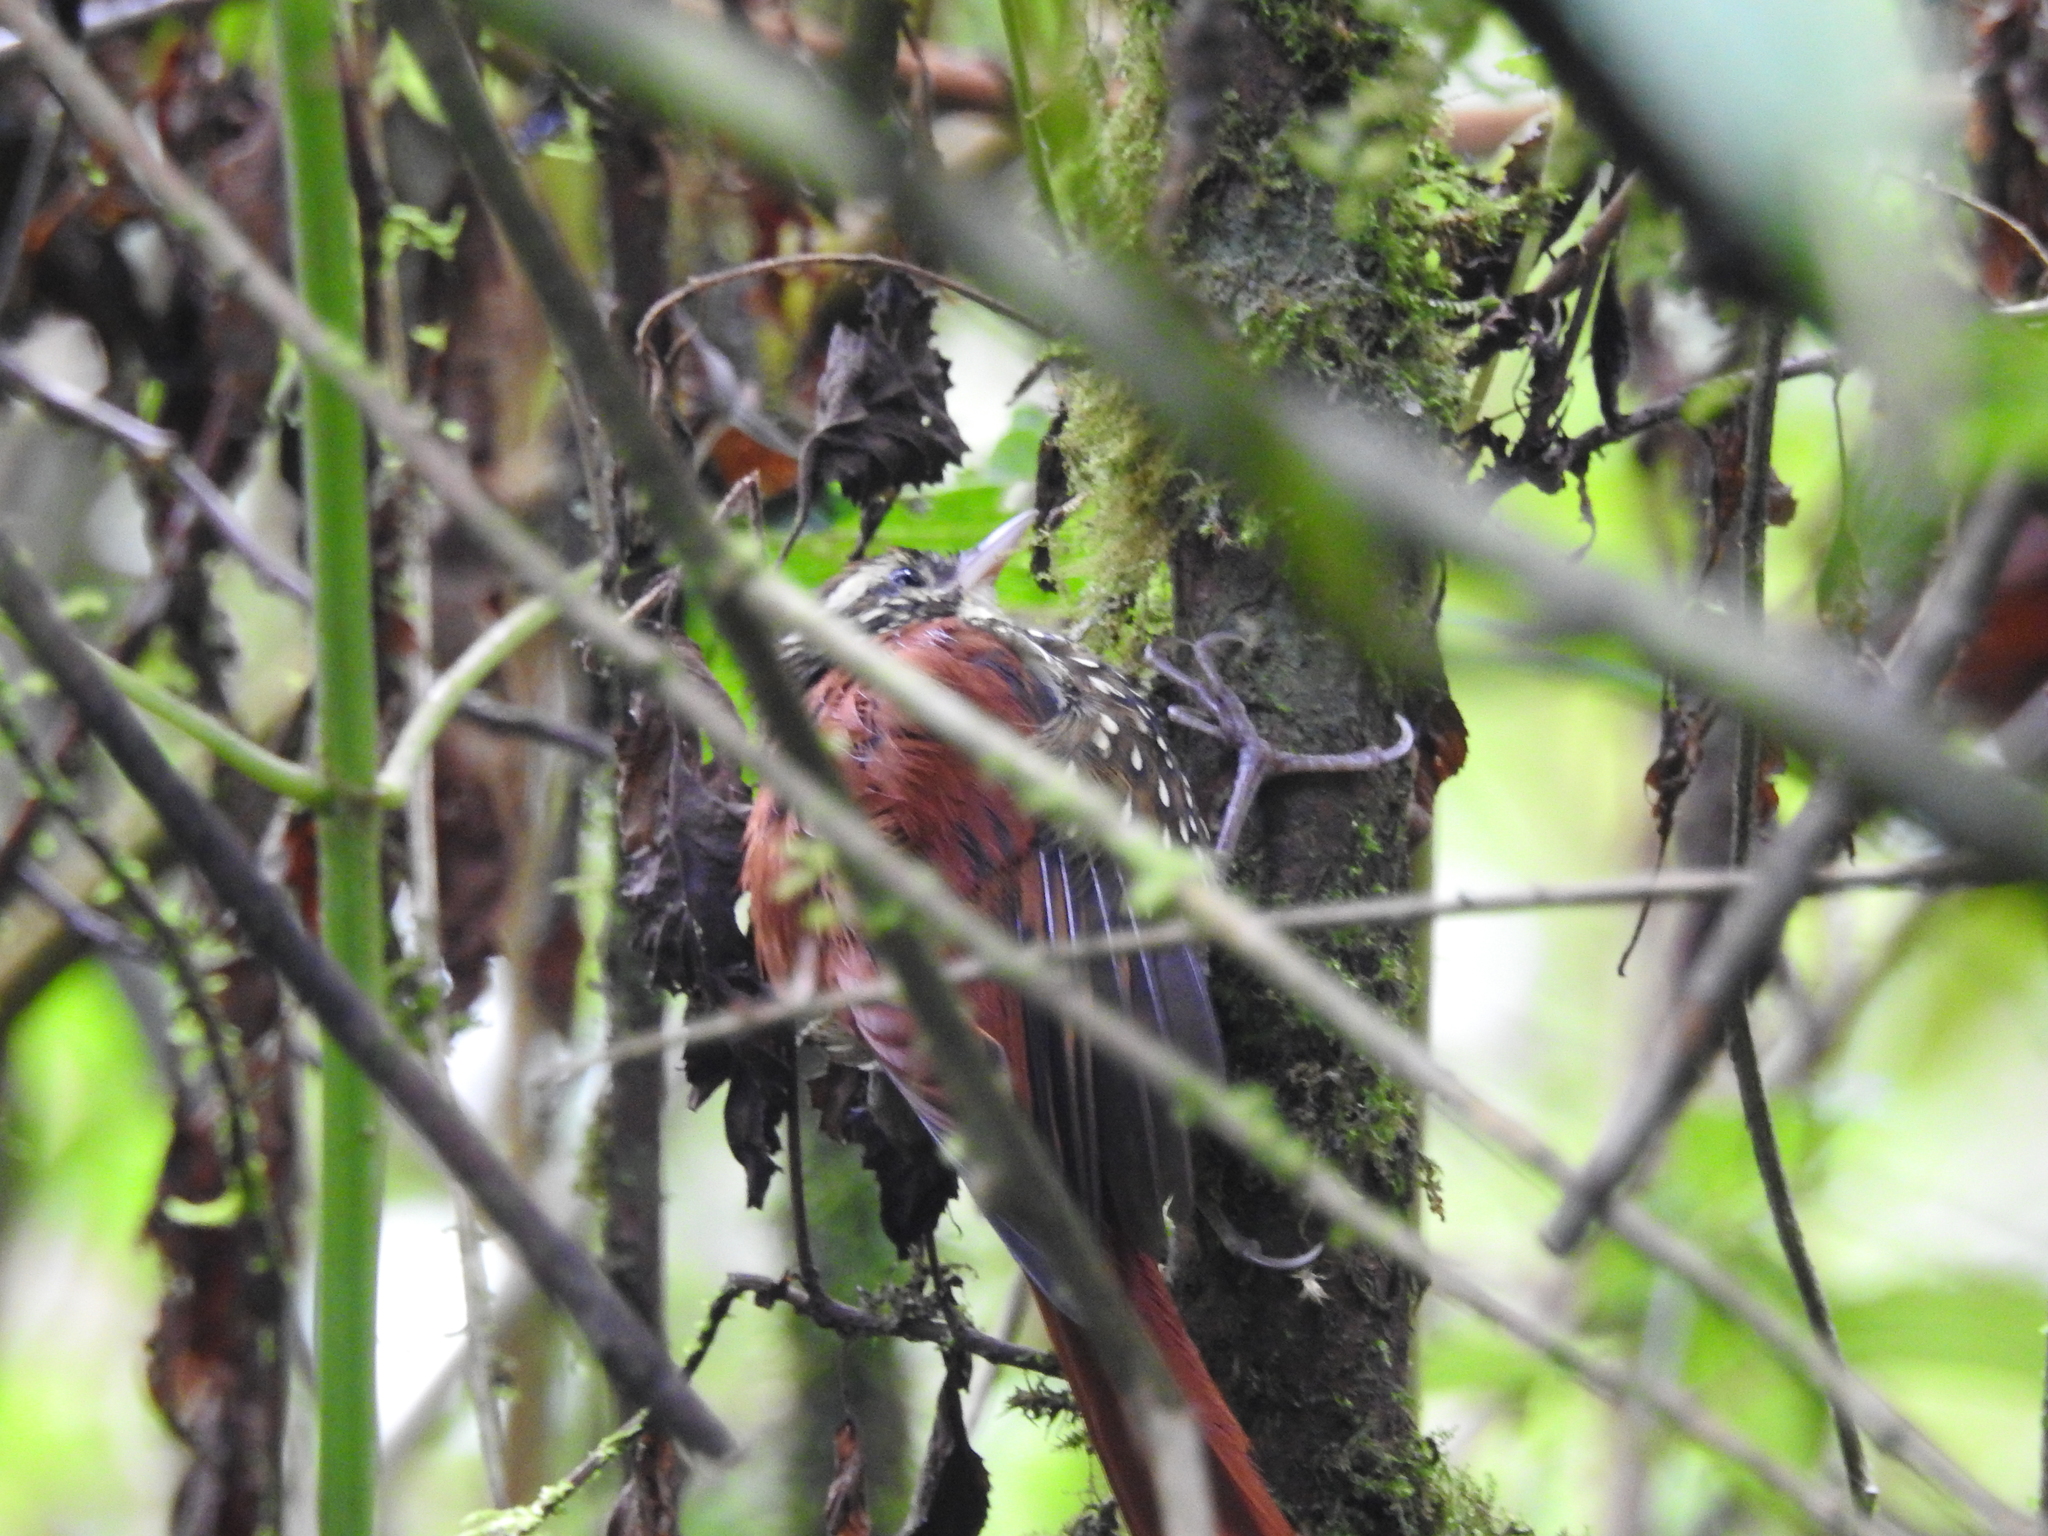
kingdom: Animalia
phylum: Chordata
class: Aves
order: Passeriformes
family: Furnariidae
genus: Margarornis
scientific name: Margarornis squamiger
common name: Pearled treerunner
